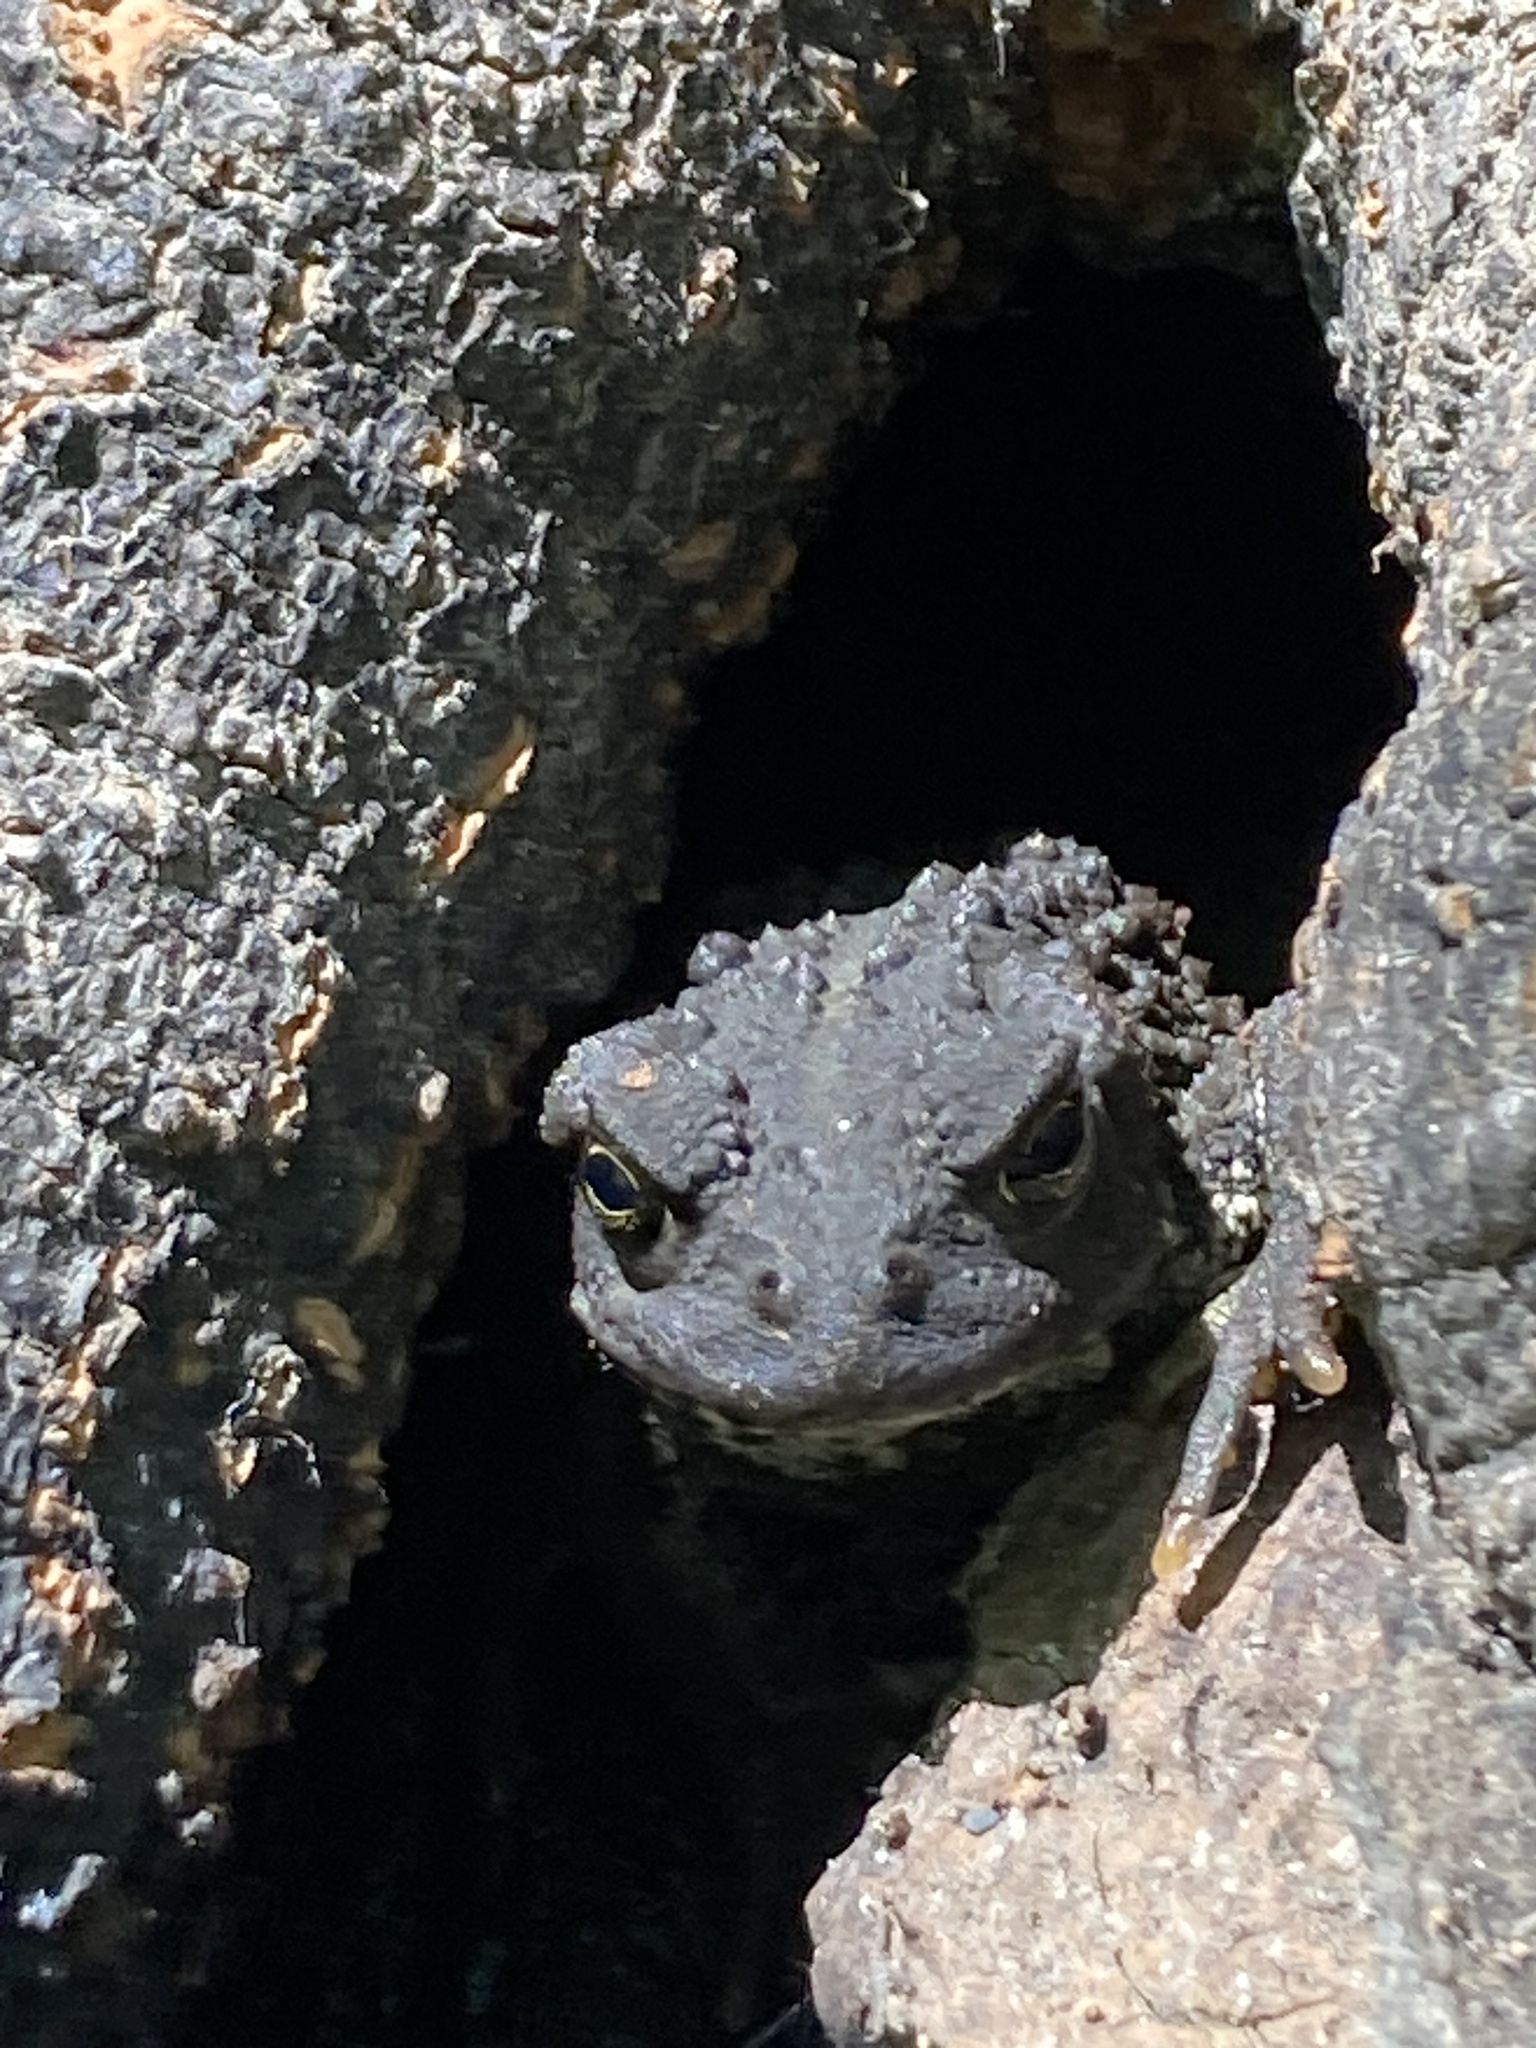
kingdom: Animalia
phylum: Chordata
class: Amphibia
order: Anura
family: Bufonidae
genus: Anaxyrus
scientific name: Anaxyrus boreas
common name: Western toad
